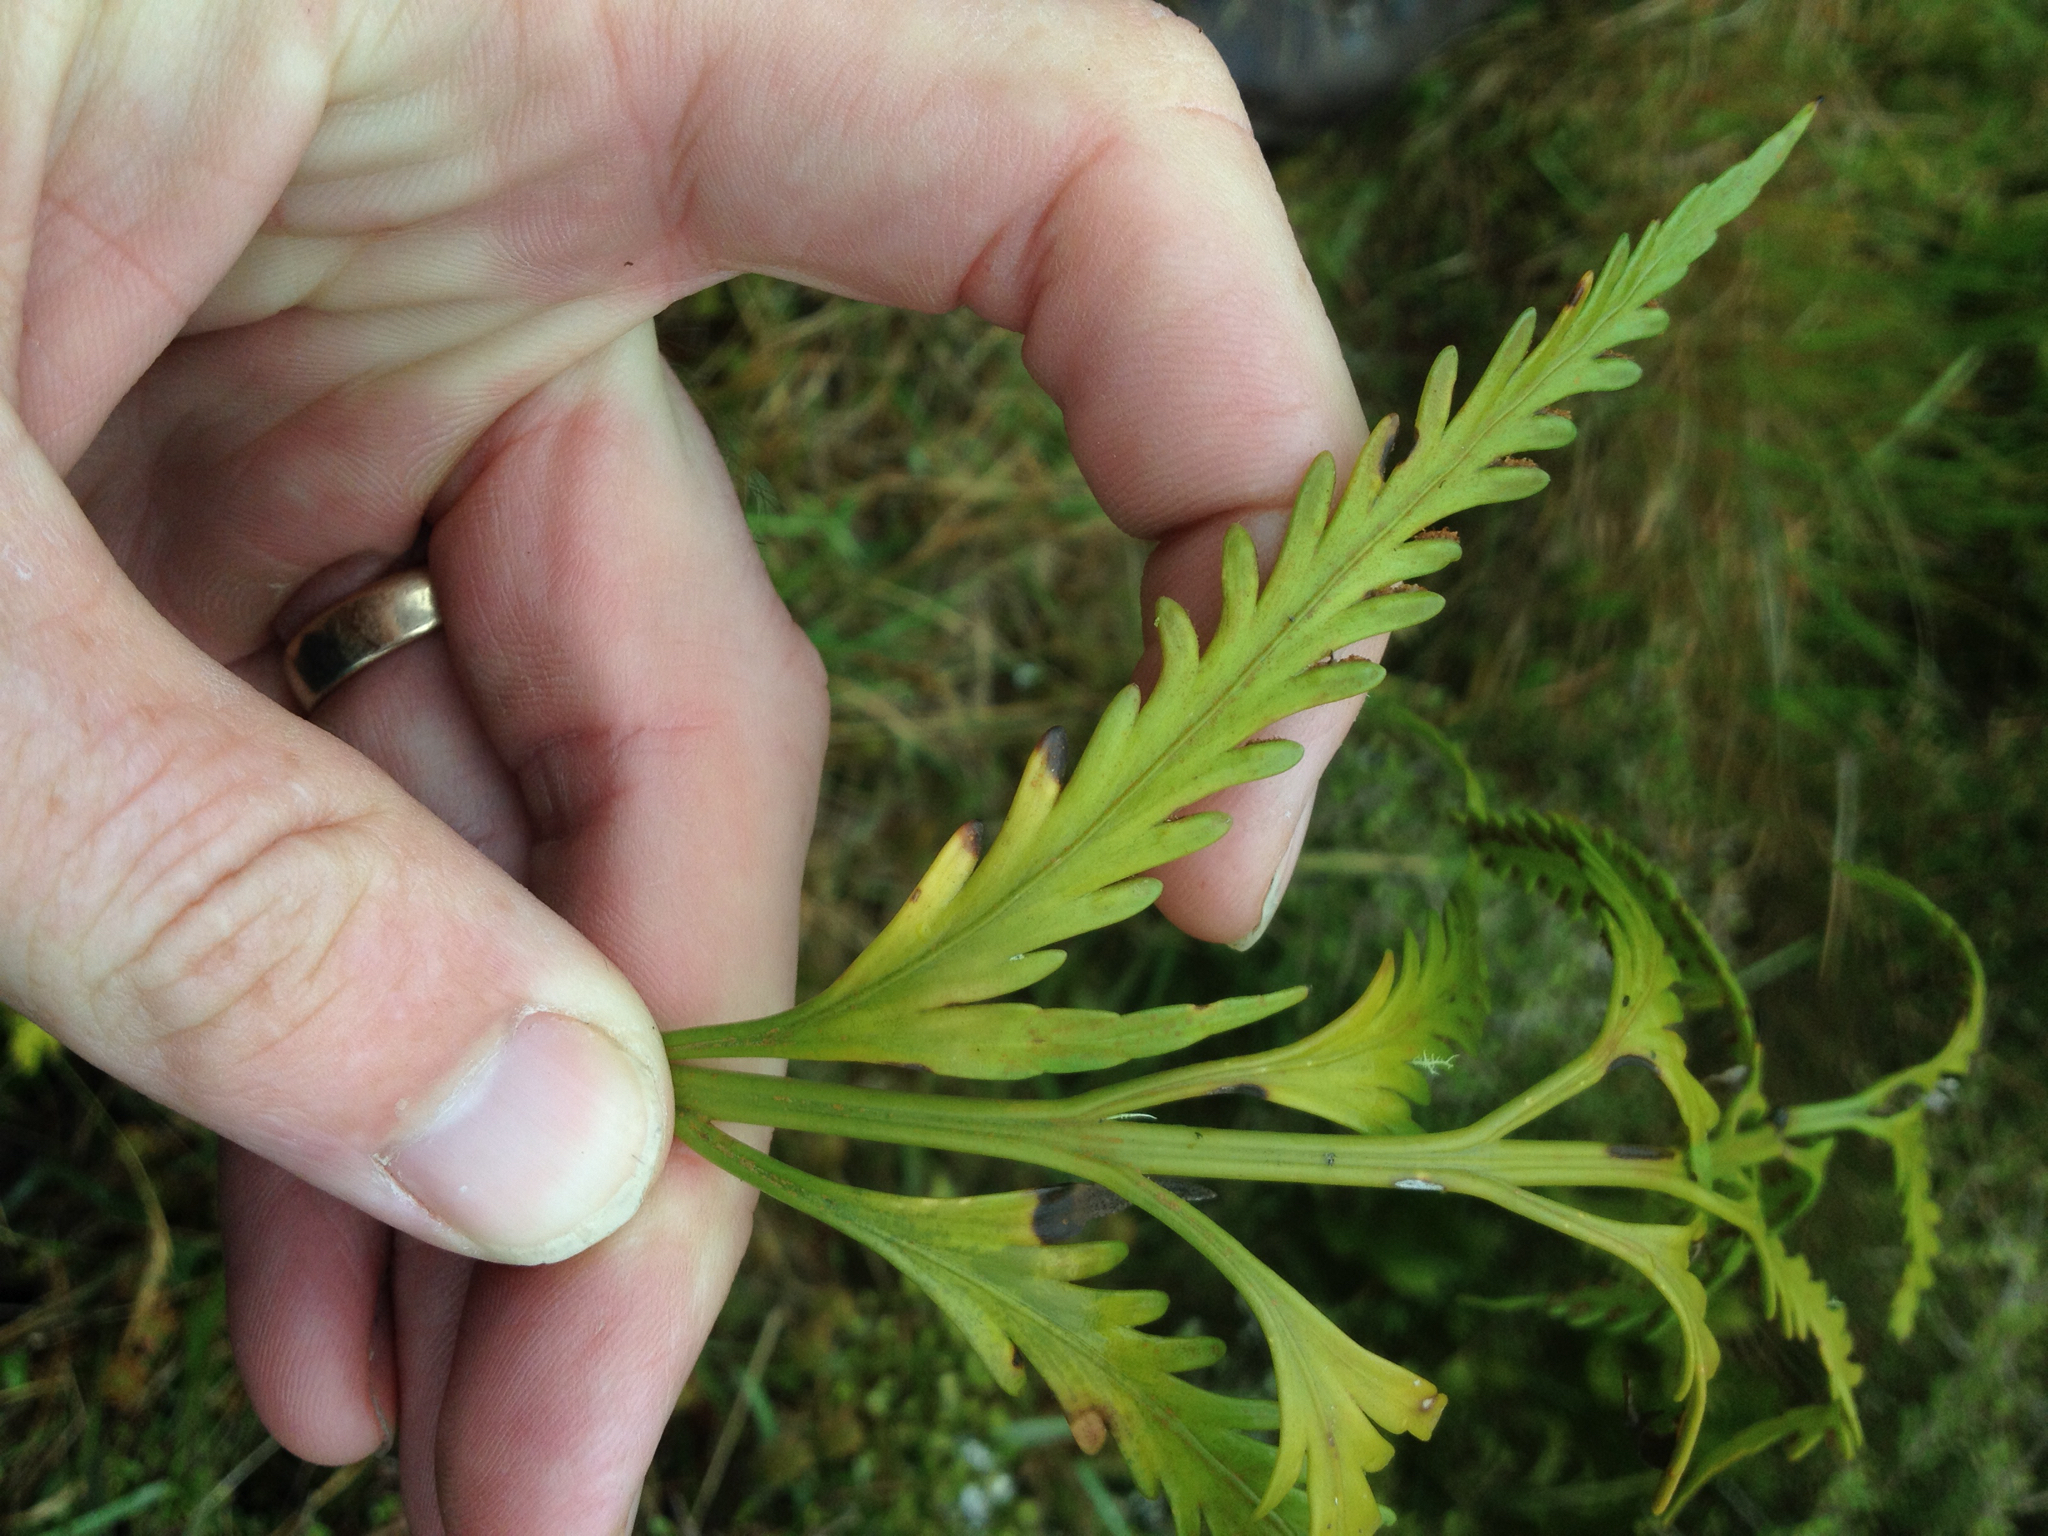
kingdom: Plantae
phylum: Tracheophyta
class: Polypodiopsida
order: Polypodiales
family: Aspleniaceae
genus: Asplenium
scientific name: Asplenium flaccidum
